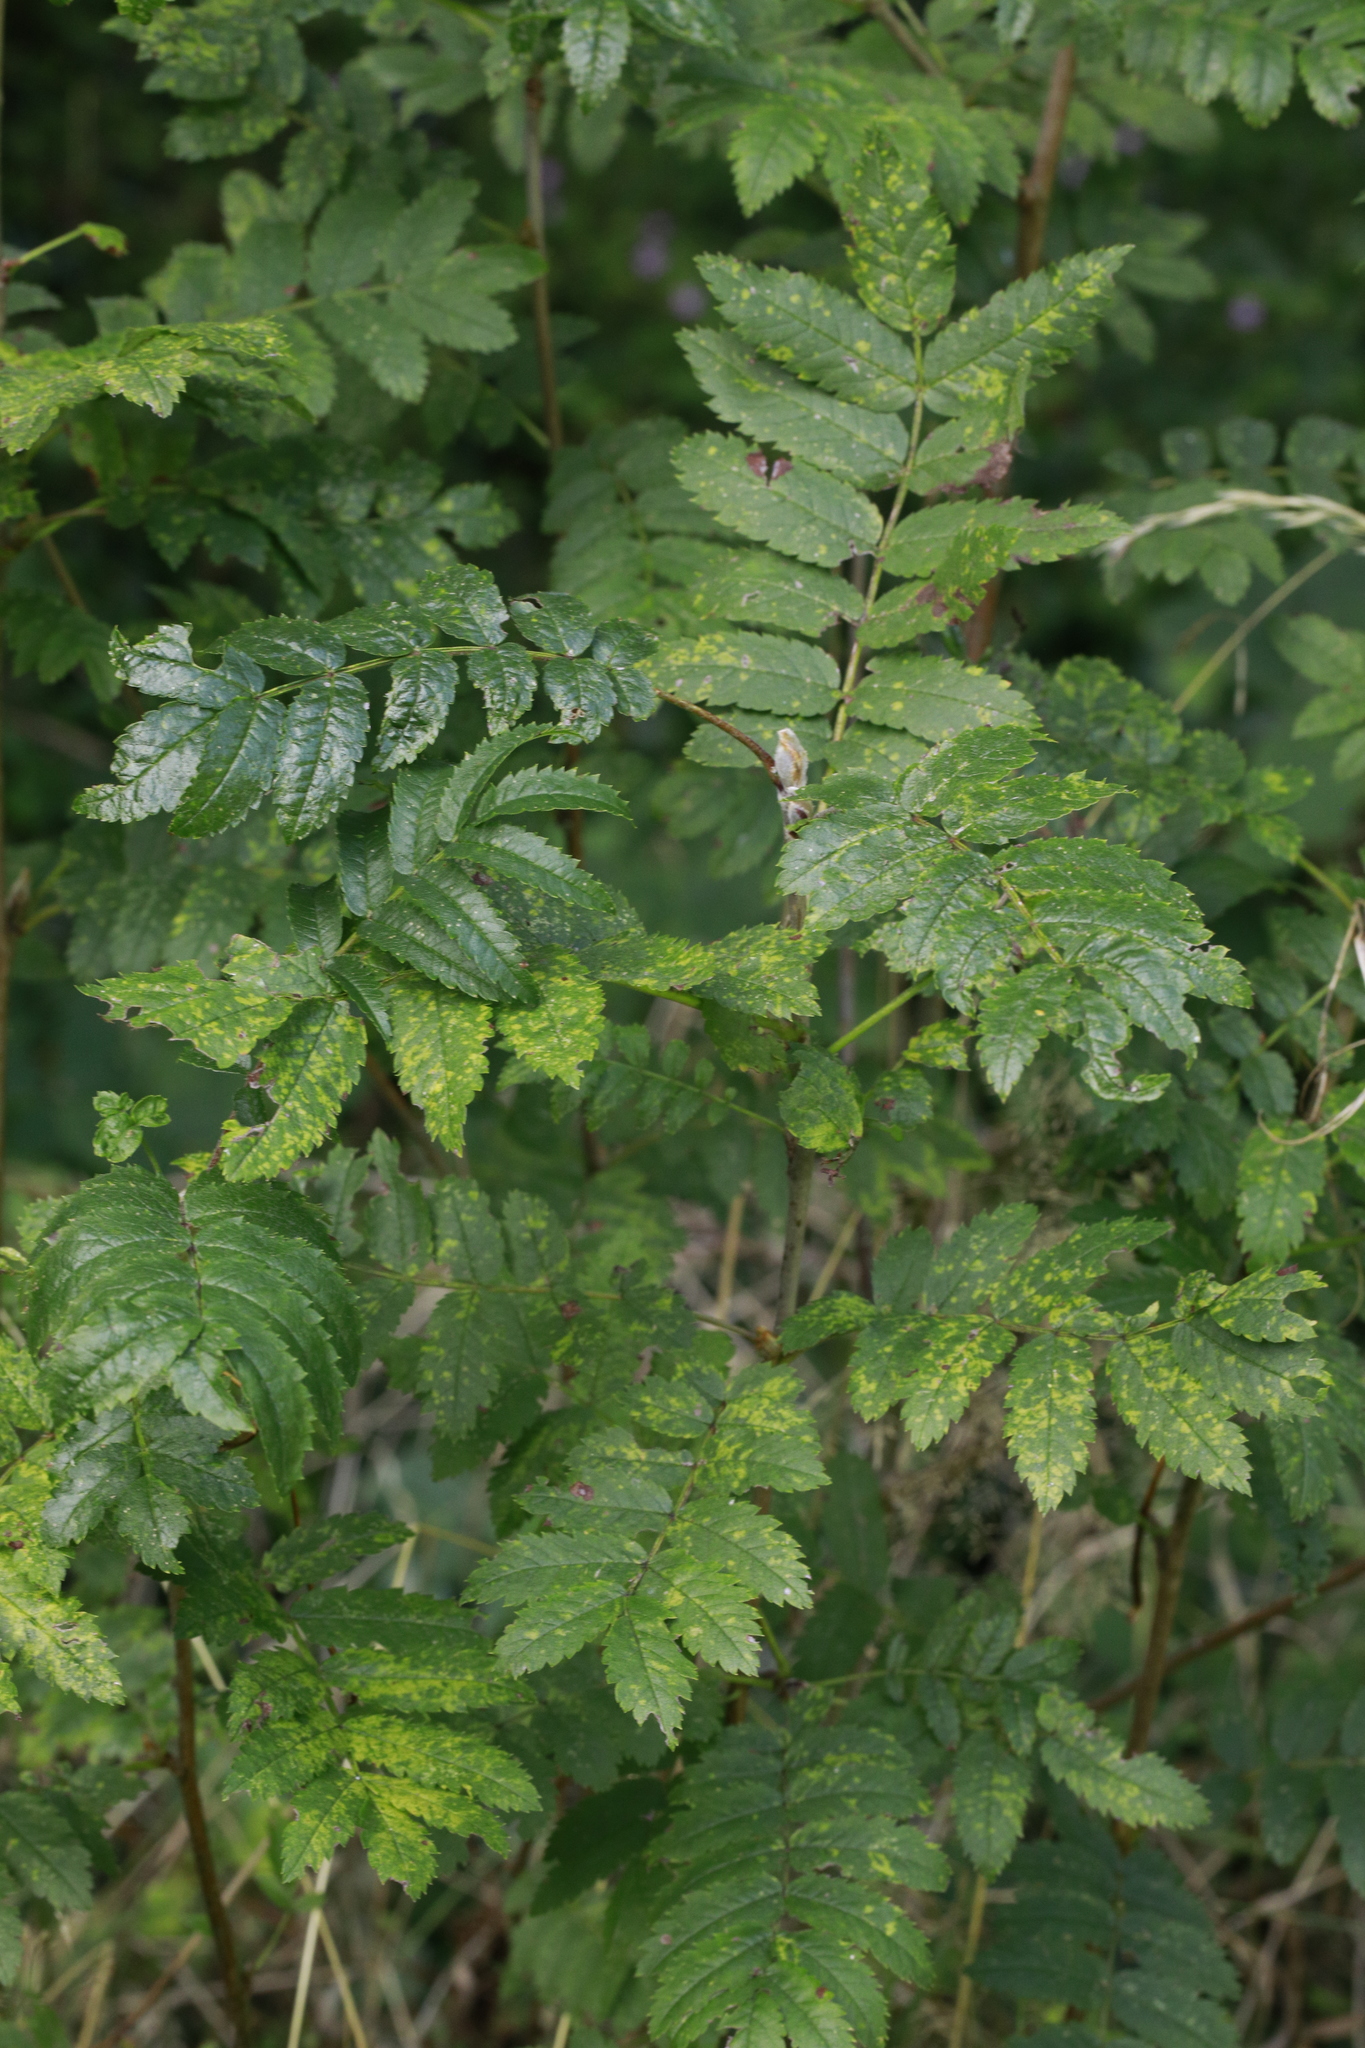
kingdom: Plantae
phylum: Tracheophyta
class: Magnoliopsida
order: Rosales
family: Rosaceae
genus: Sorbus
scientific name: Sorbus aucuparia
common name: Rowan
